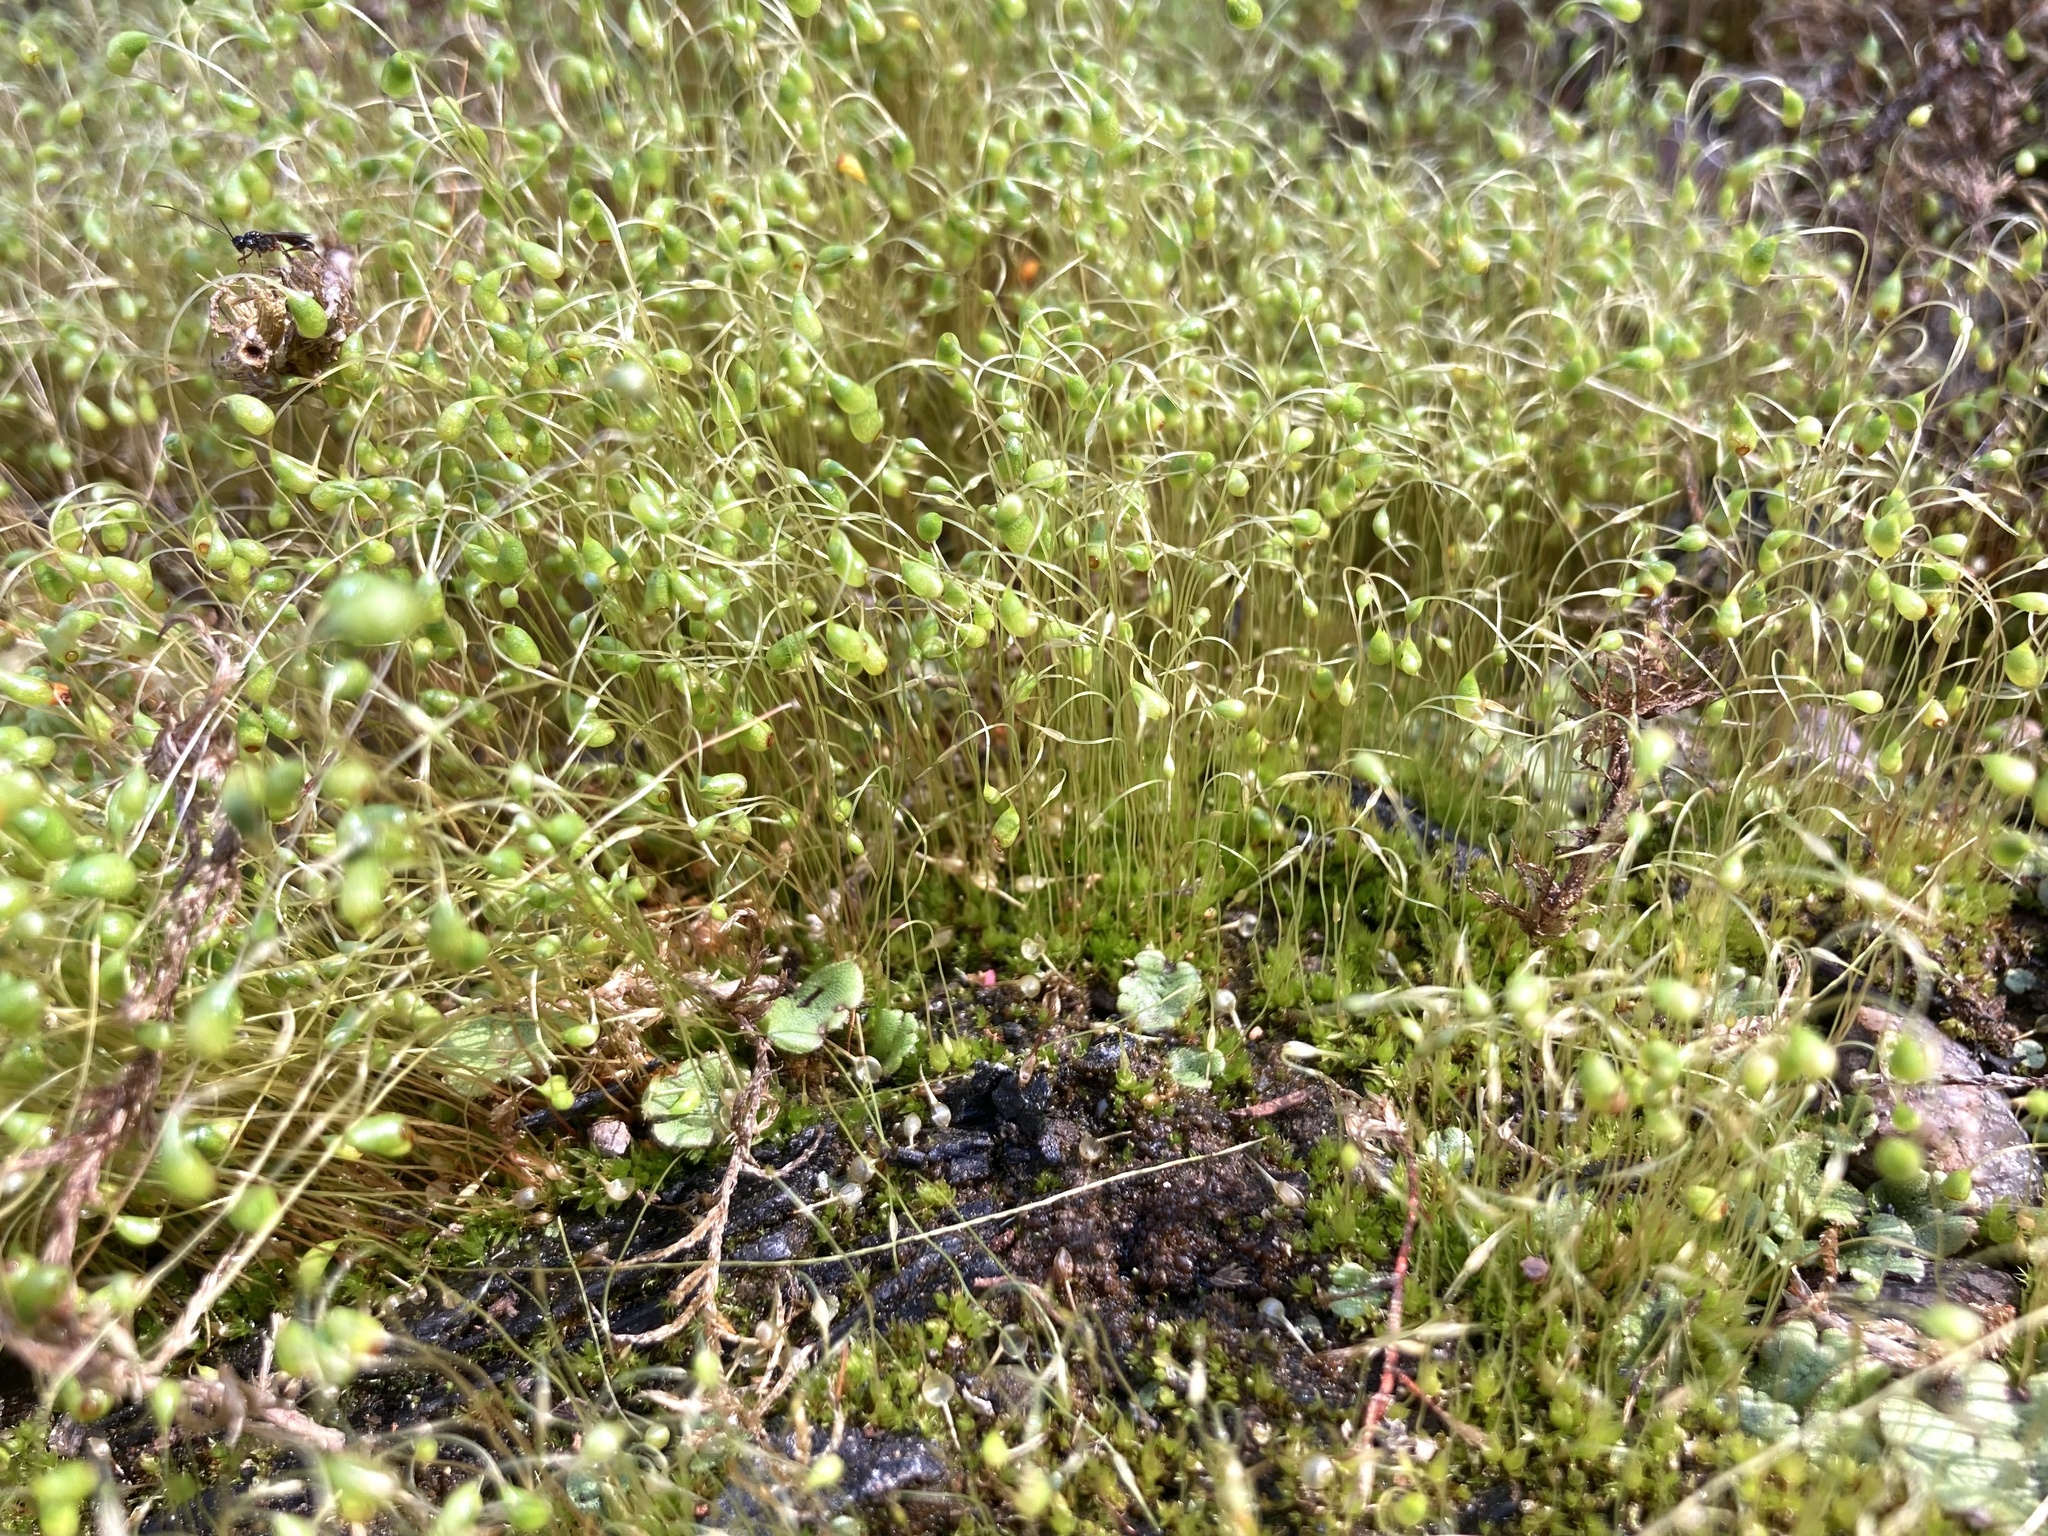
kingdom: Plantae
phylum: Bryophyta
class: Bryopsida
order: Funariales
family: Funariaceae
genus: Funaria
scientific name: Funaria hygrometrica
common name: Common cord moss
